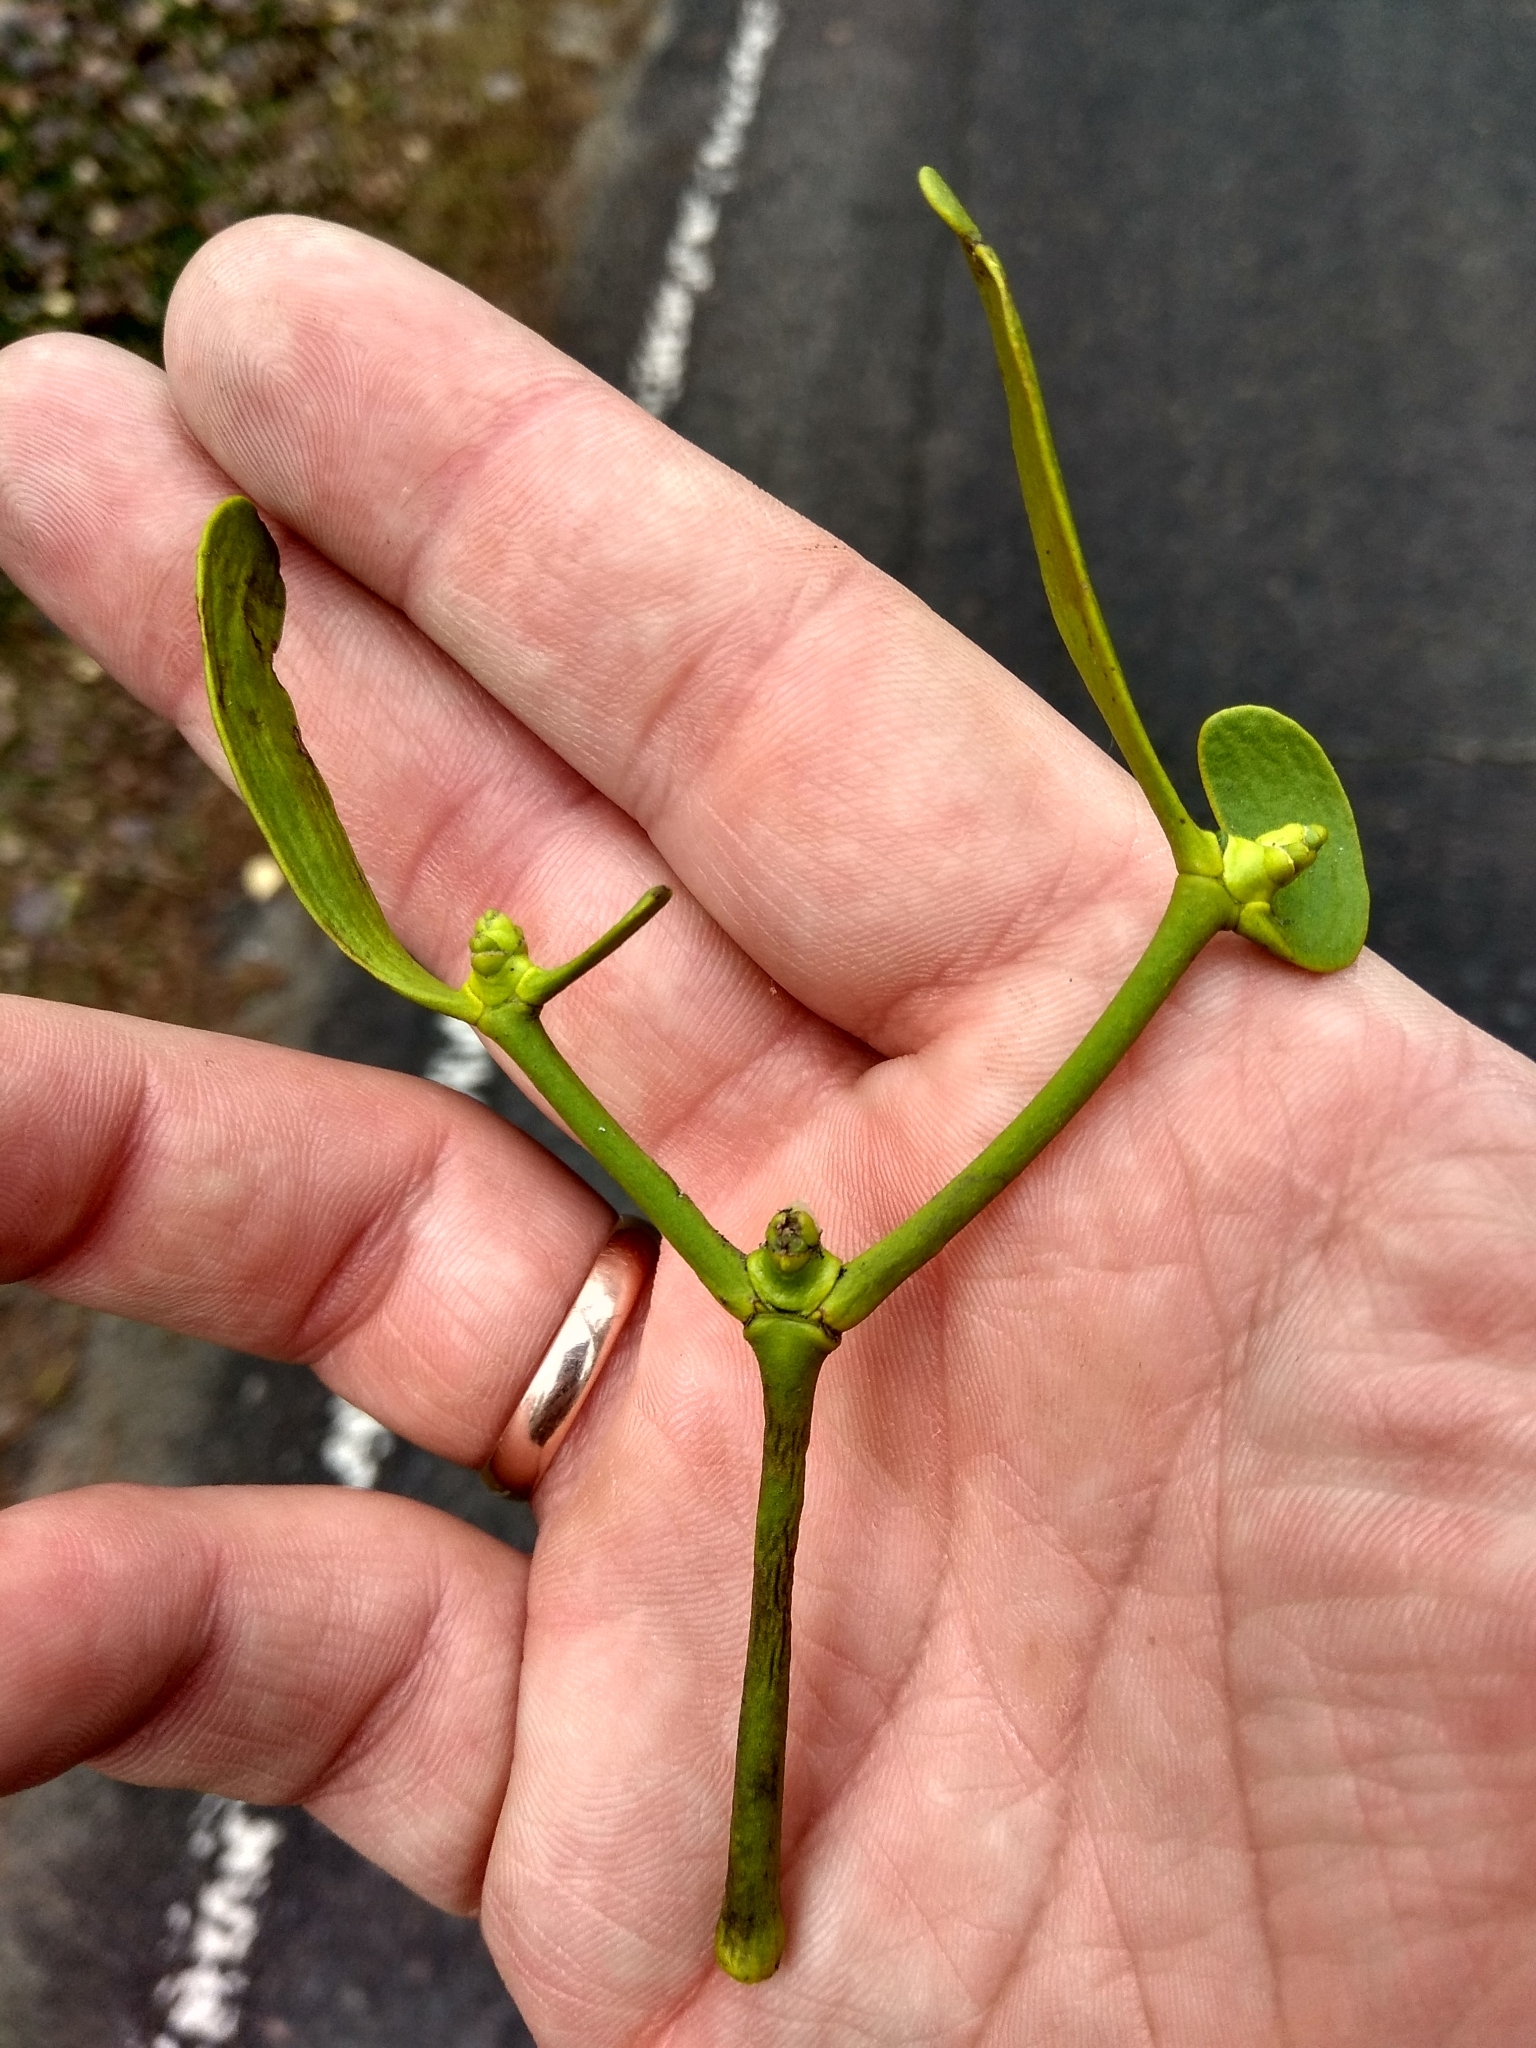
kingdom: Plantae
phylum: Tracheophyta
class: Magnoliopsida
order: Santalales
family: Viscaceae
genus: Viscum
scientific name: Viscum album
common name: Mistletoe
